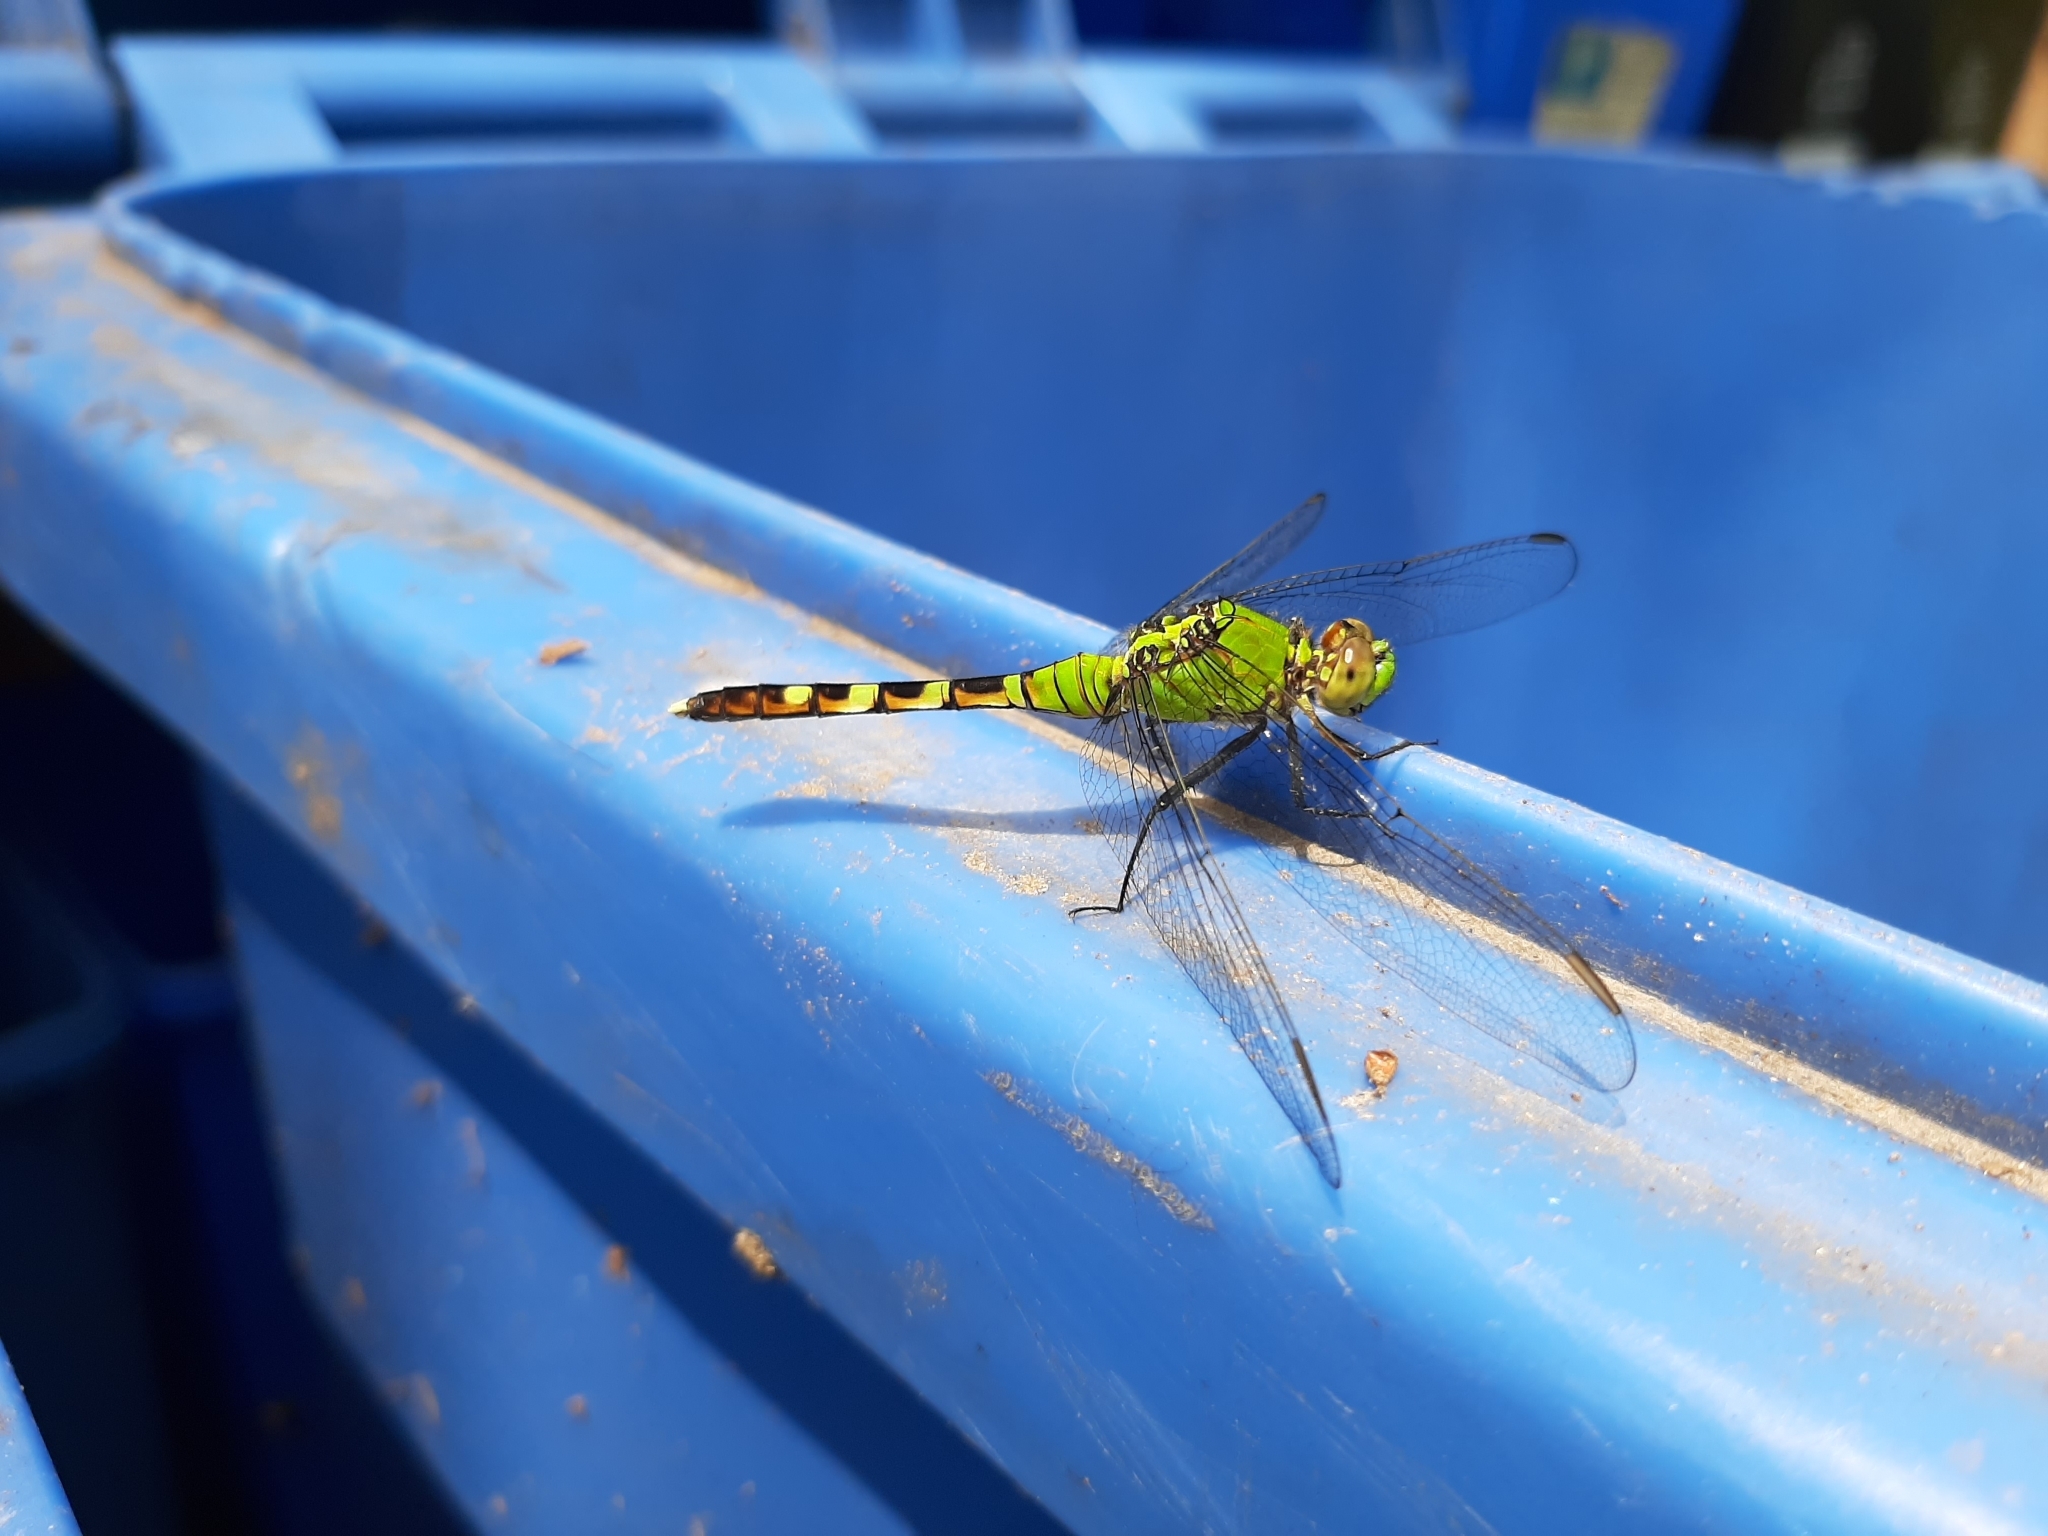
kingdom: Animalia
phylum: Arthropoda
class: Insecta
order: Odonata
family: Libellulidae
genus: Erythemis
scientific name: Erythemis simplicicollis
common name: Eastern pondhawk
